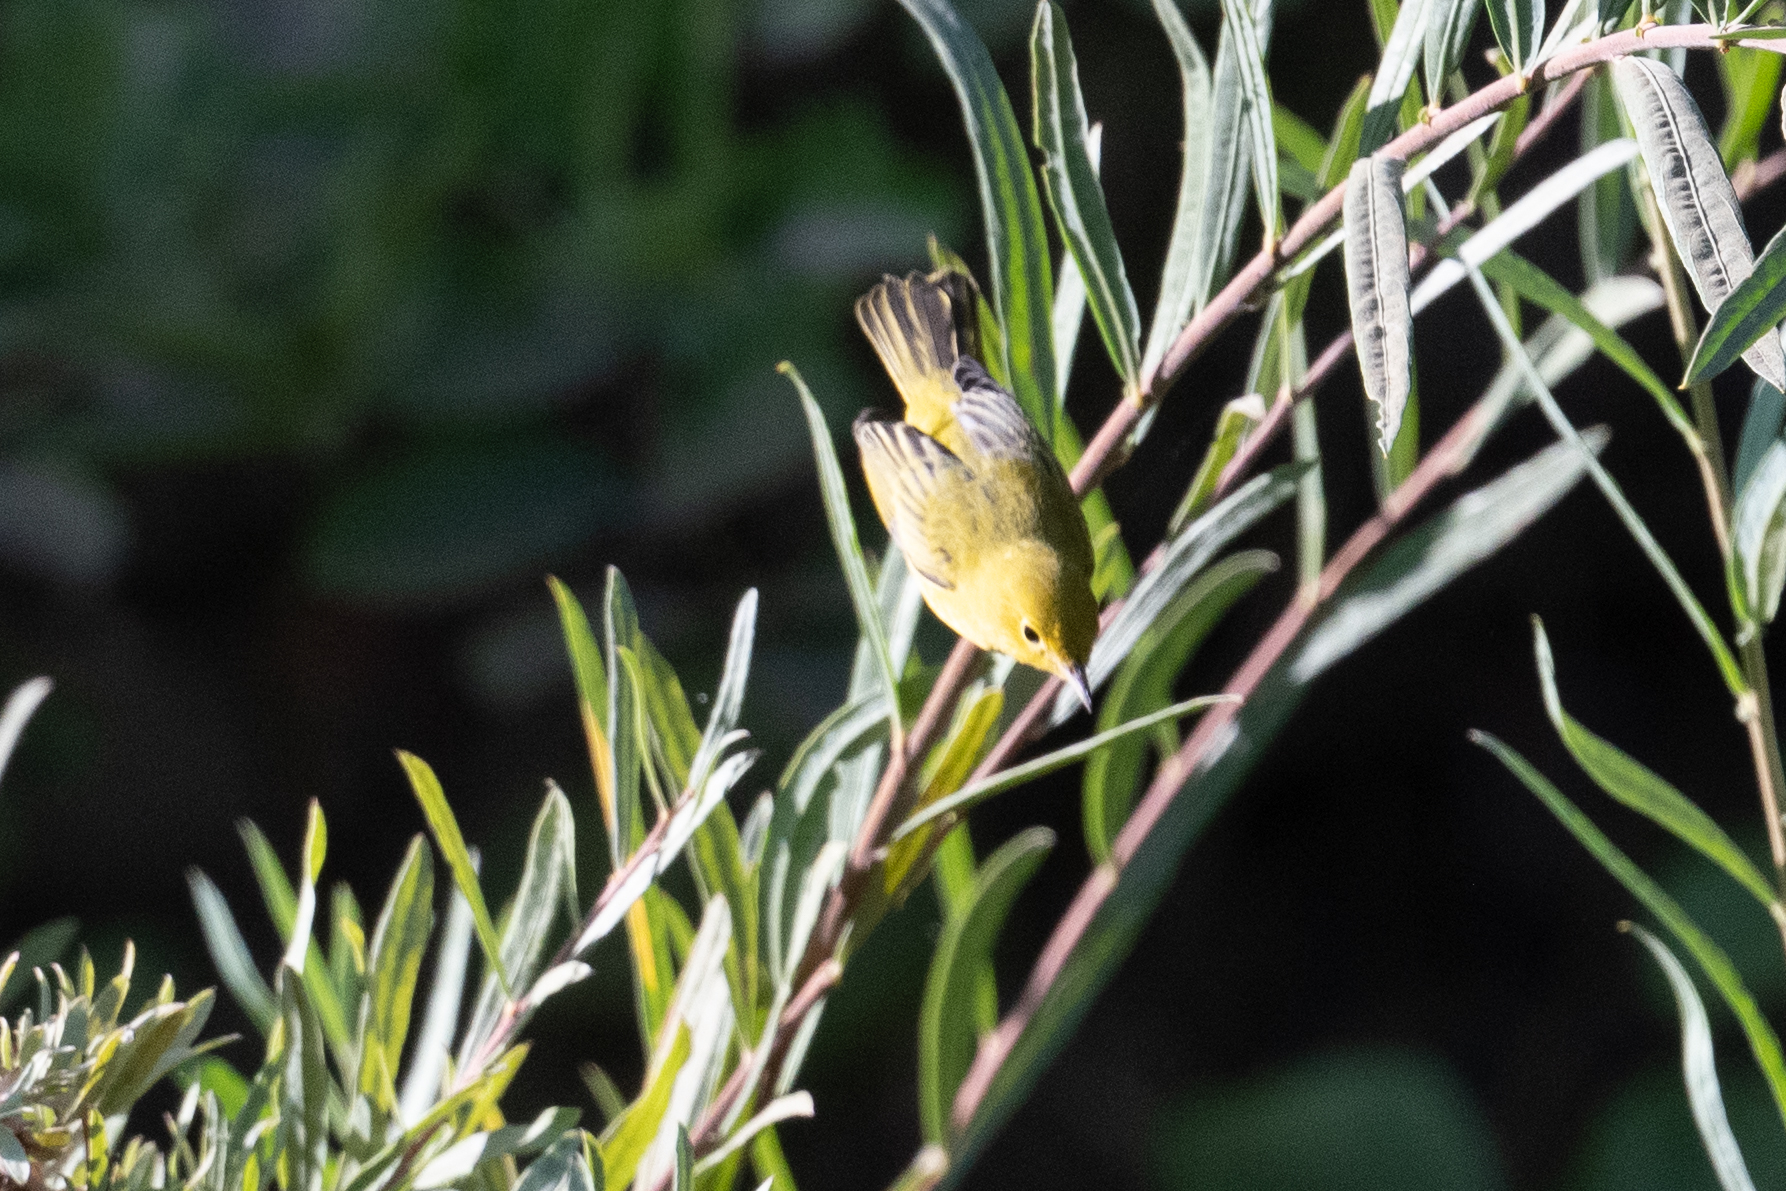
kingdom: Animalia
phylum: Chordata
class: Aves
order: Passeriformes
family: Parulidae
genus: Setophaga
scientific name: Setophaga petechia
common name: Yellow warbler
